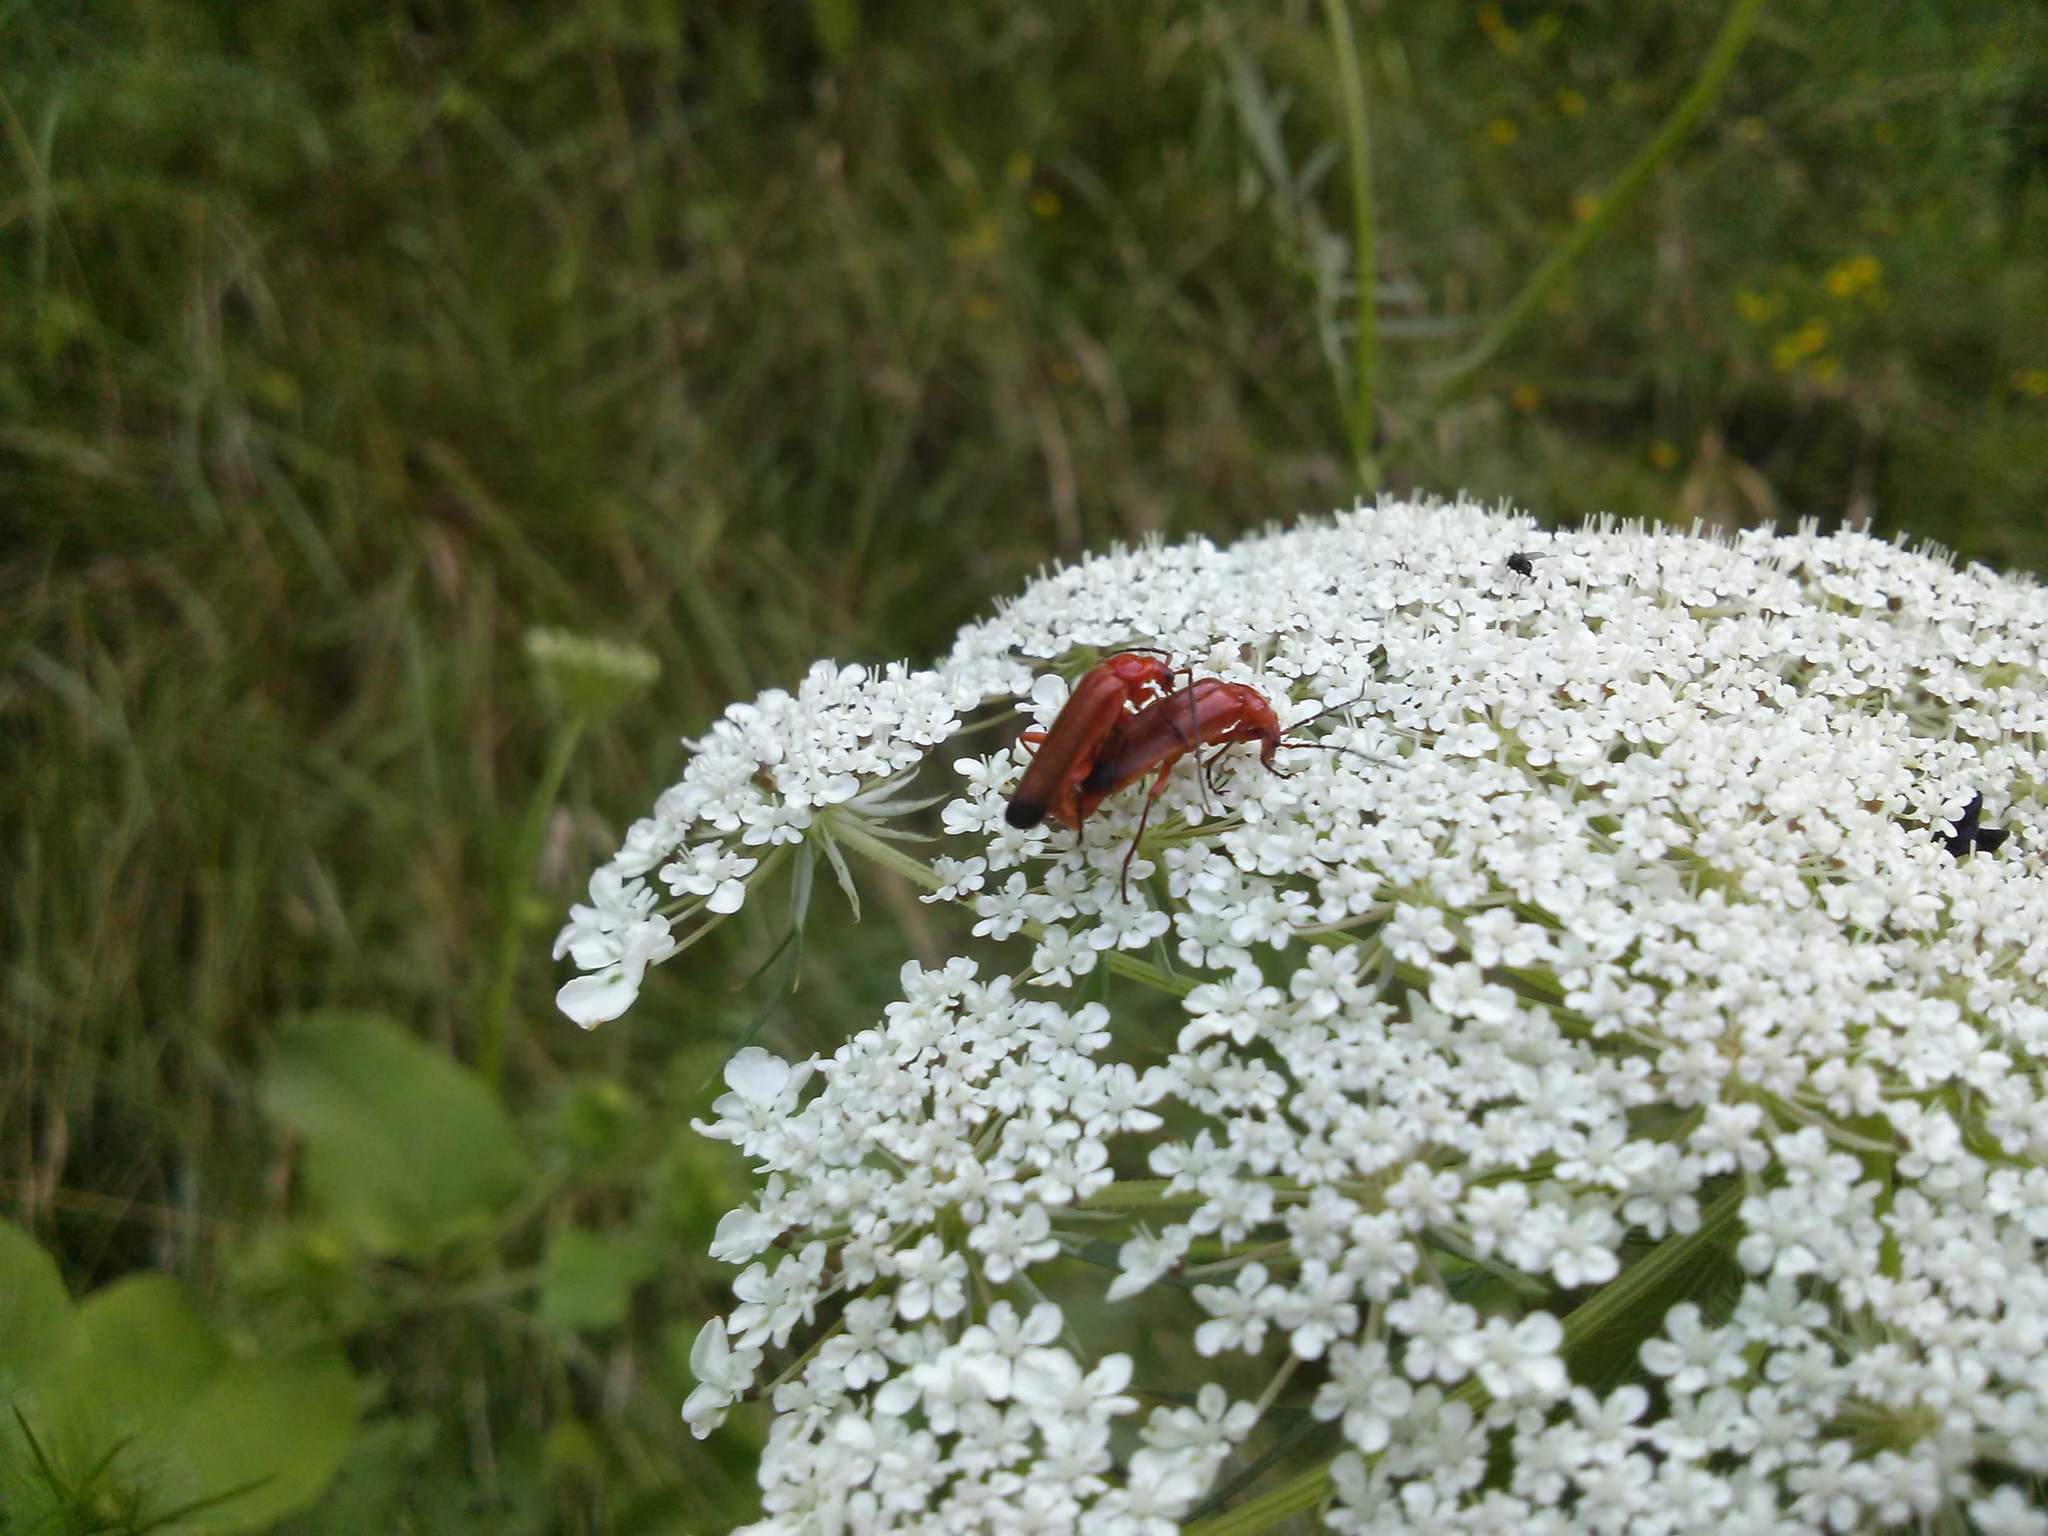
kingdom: Animalia
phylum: Arthropoda
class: Insecta
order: Coleoptera
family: Cantharidae
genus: Rhagonycha
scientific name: Rhagonycha fulva
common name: Common red soldier beetle
